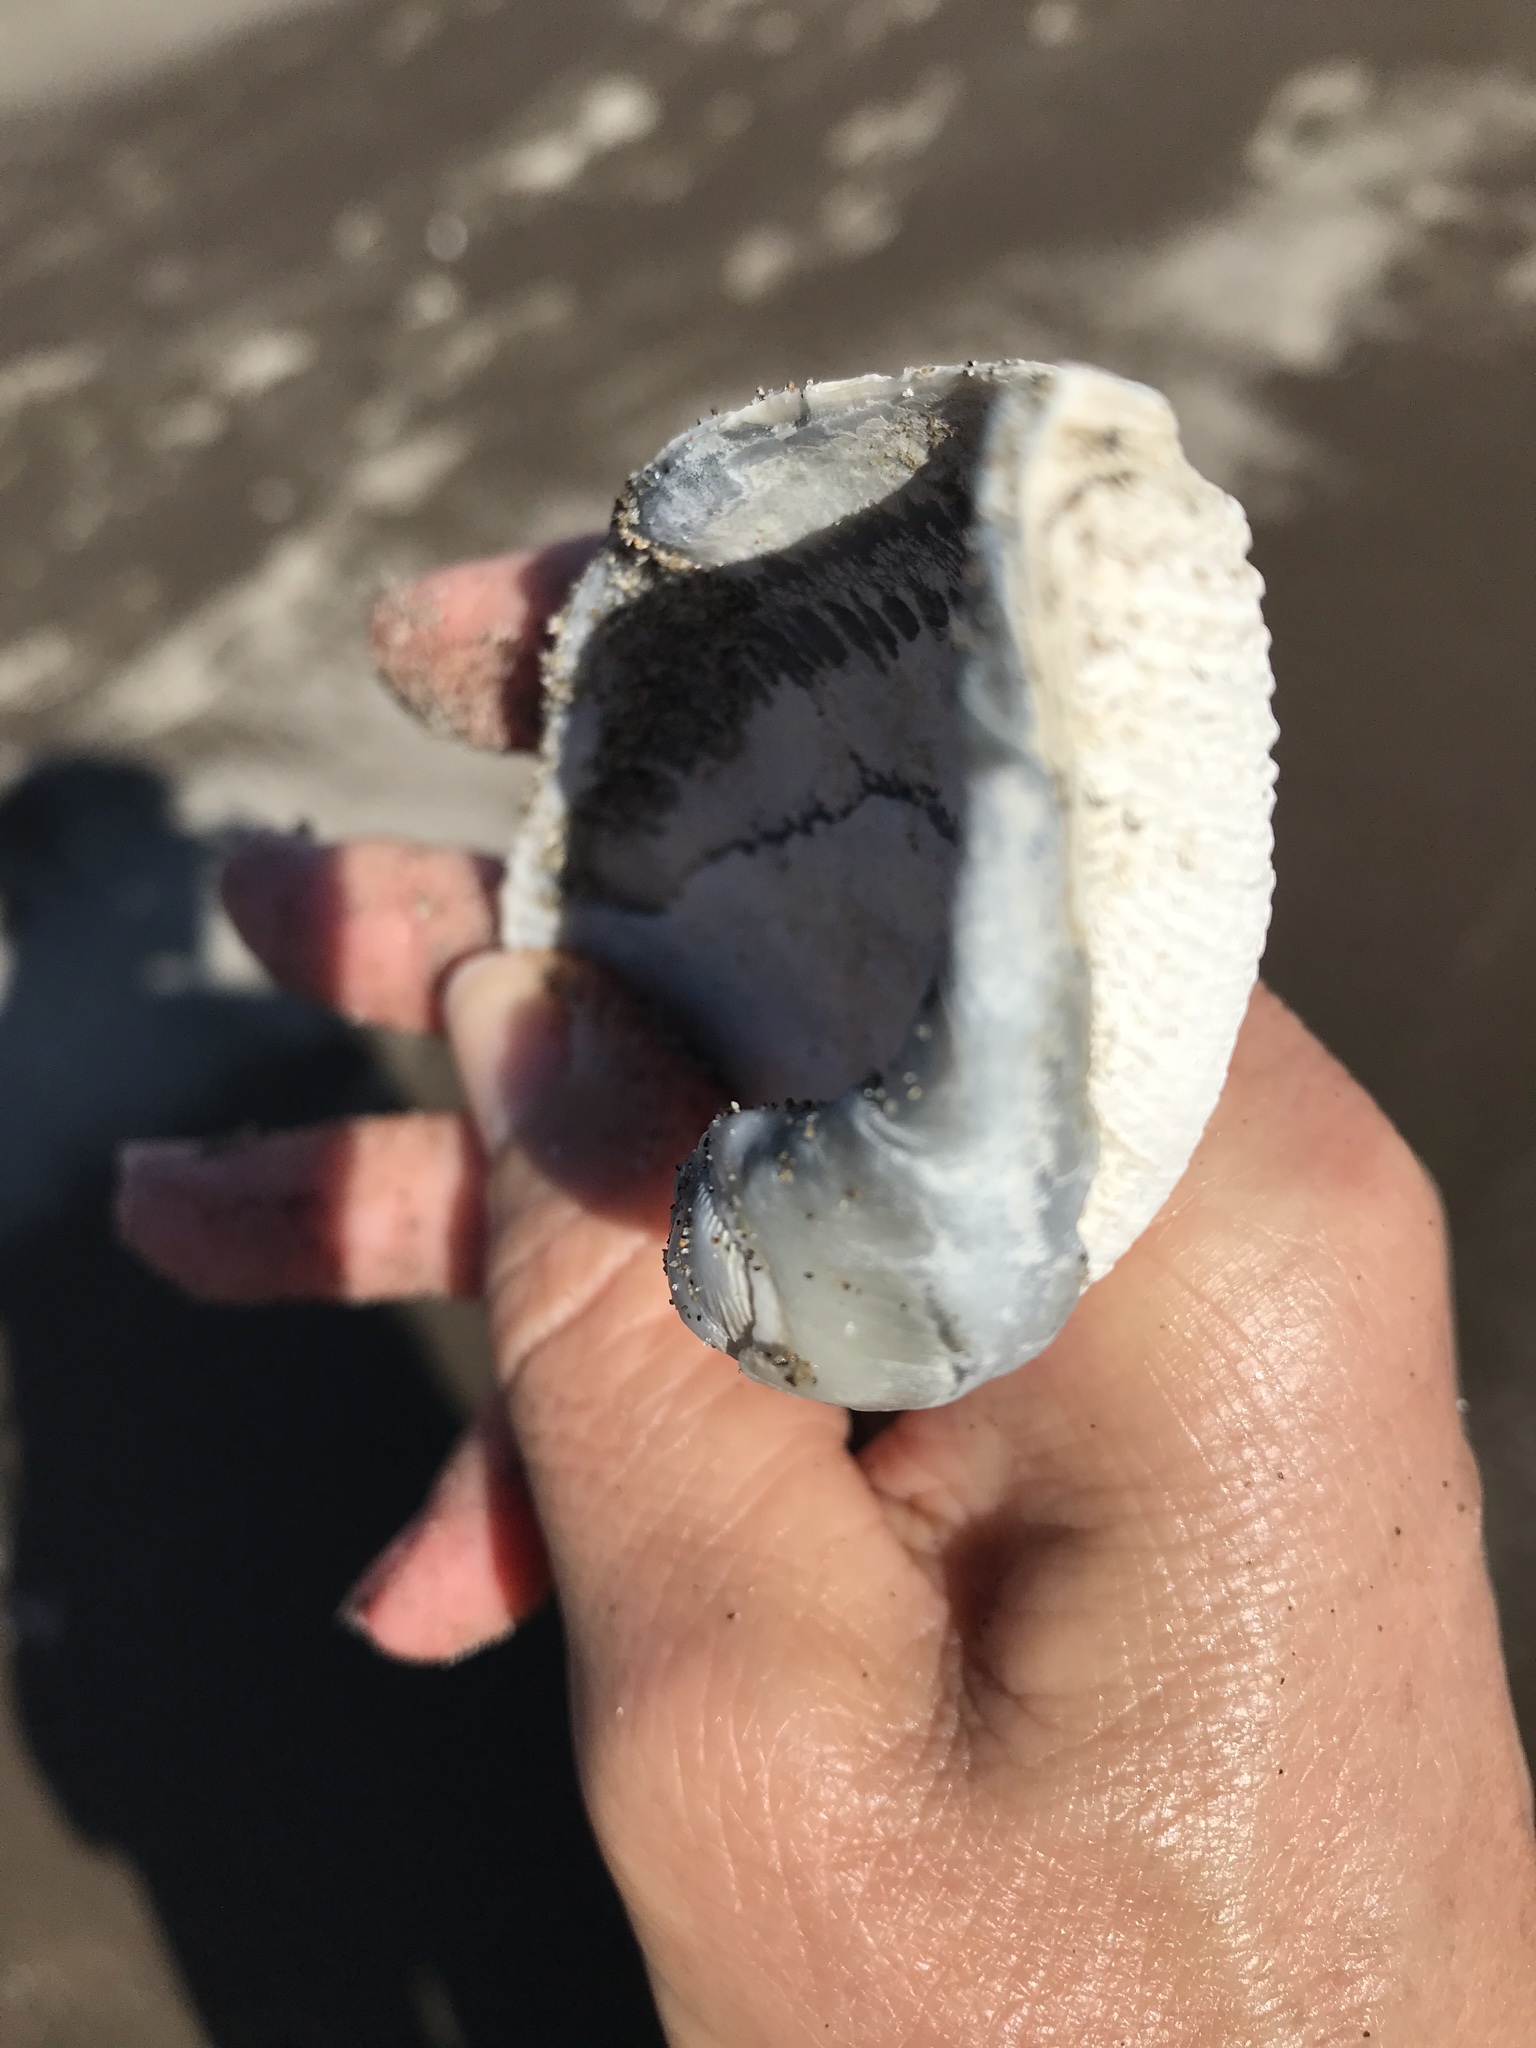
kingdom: Animalia
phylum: Mollusca
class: Bivalvia
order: Myida
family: Pholadidae
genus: Zirfaea
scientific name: Zirfaea pilsbryi
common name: Rough piddock
